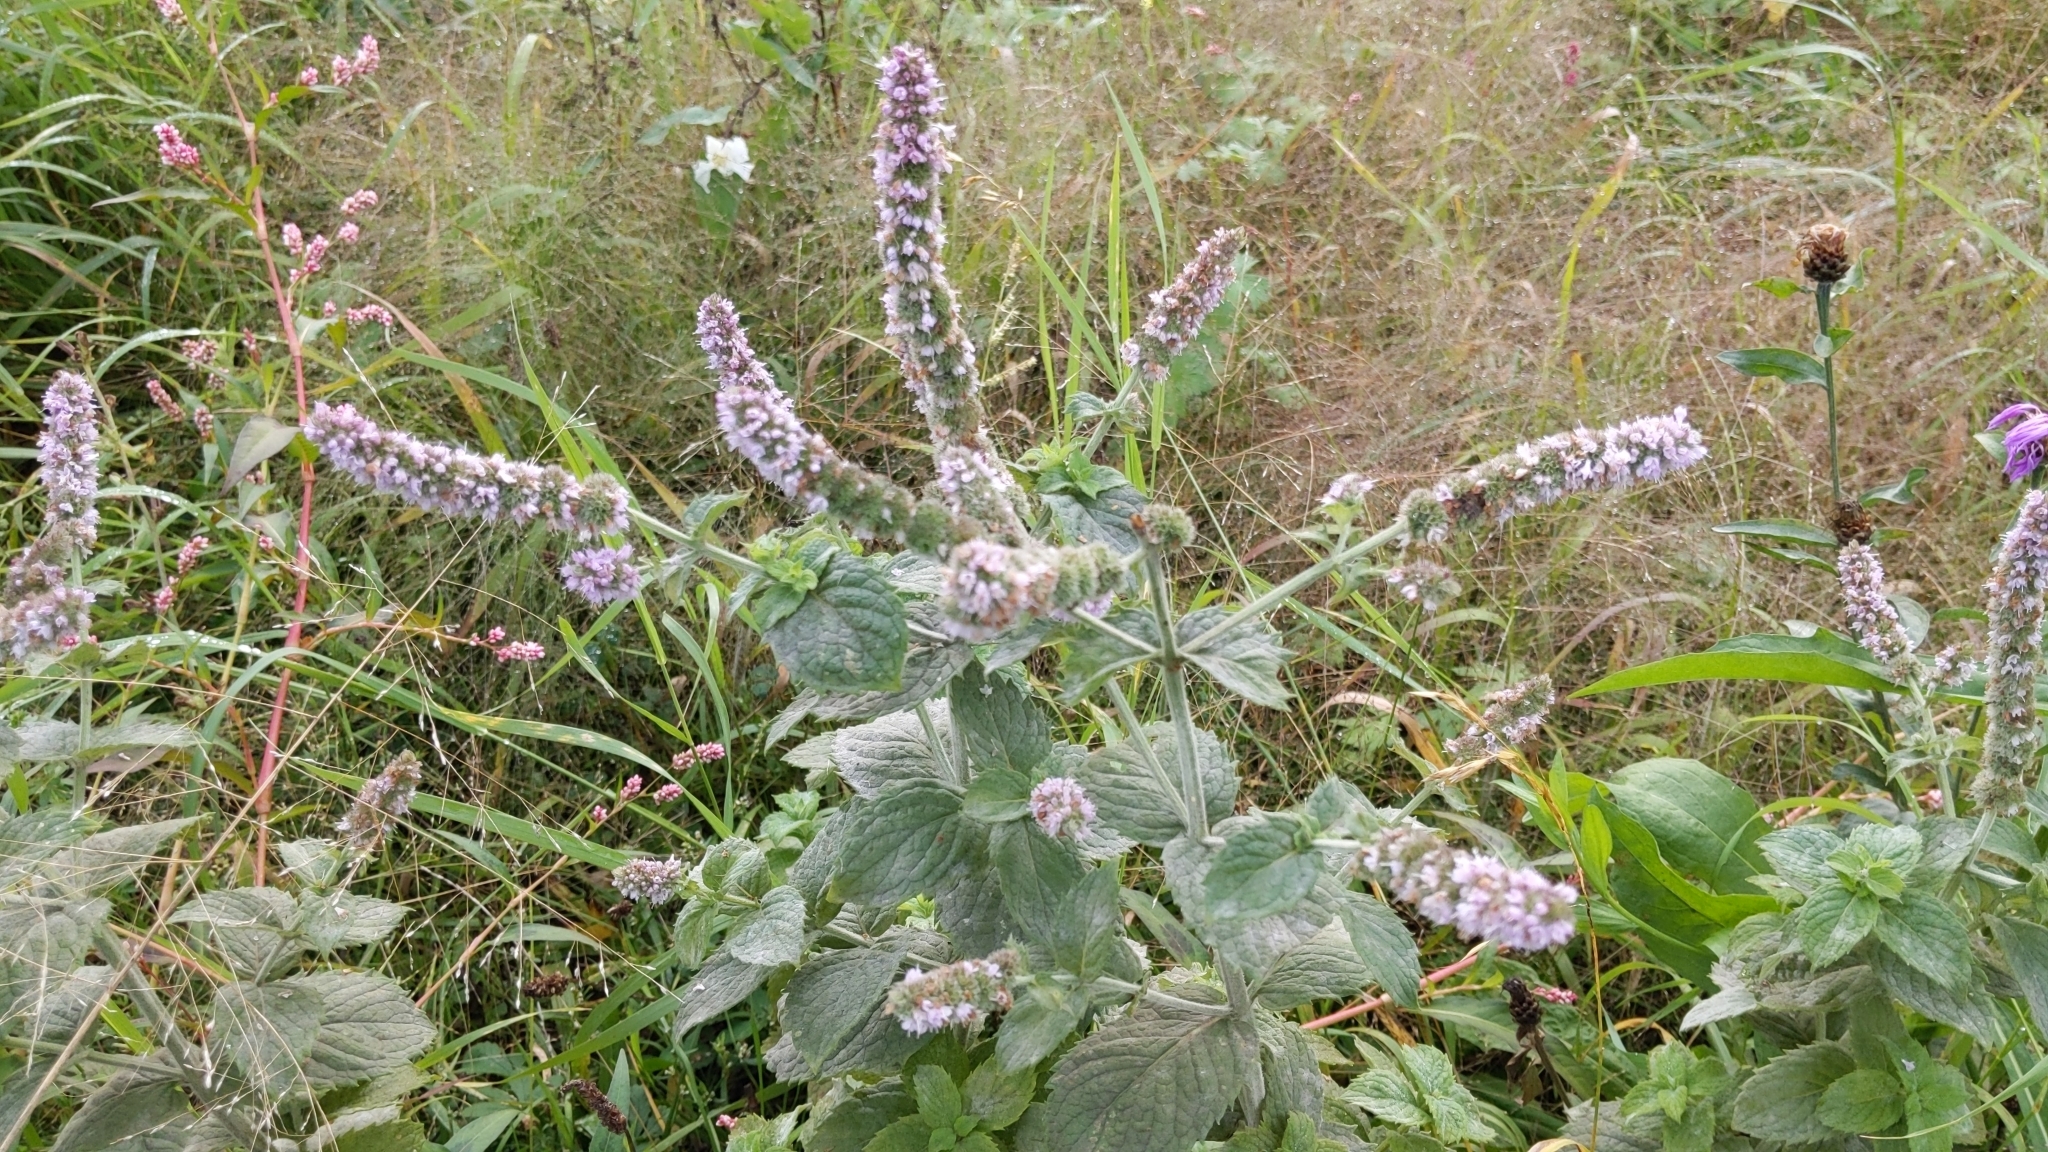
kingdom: Plantae
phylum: Tracheophyta
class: Magnoliopsida
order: Lamiales
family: Lamiaceae
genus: Mentha
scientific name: Mentha longifolia
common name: Horse mint
